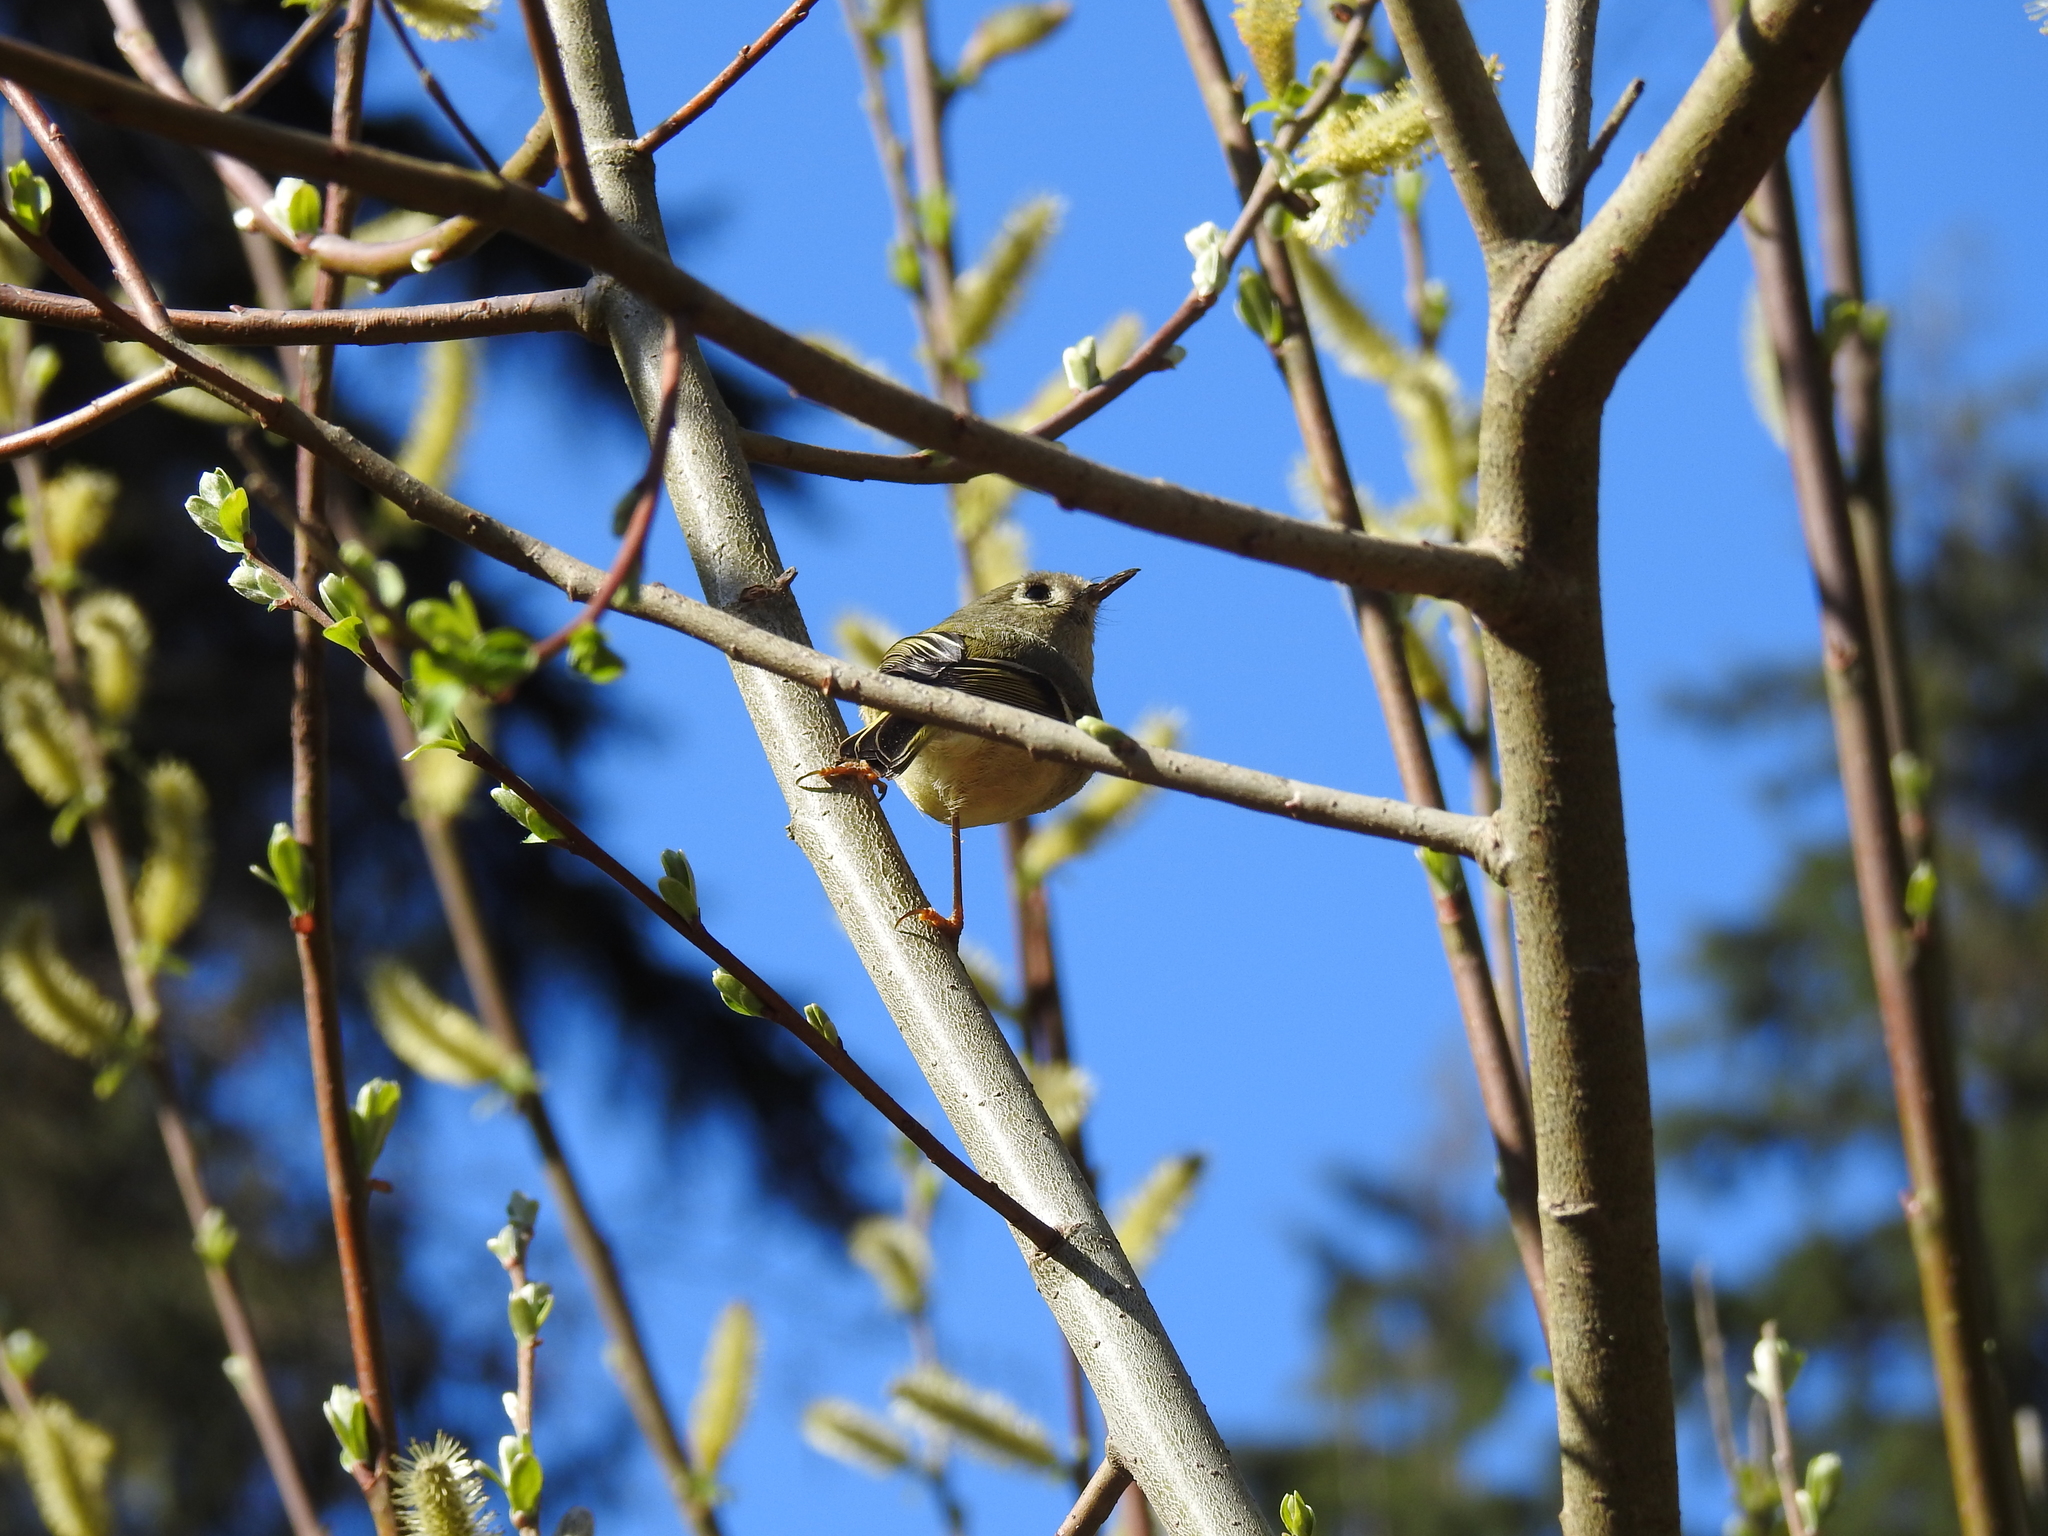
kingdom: Animalia
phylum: Chordata
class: Aves
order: Passeriformes
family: Regulidae
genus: Regulus
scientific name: Regulus calendula
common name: Ruby-crowned kinglet
